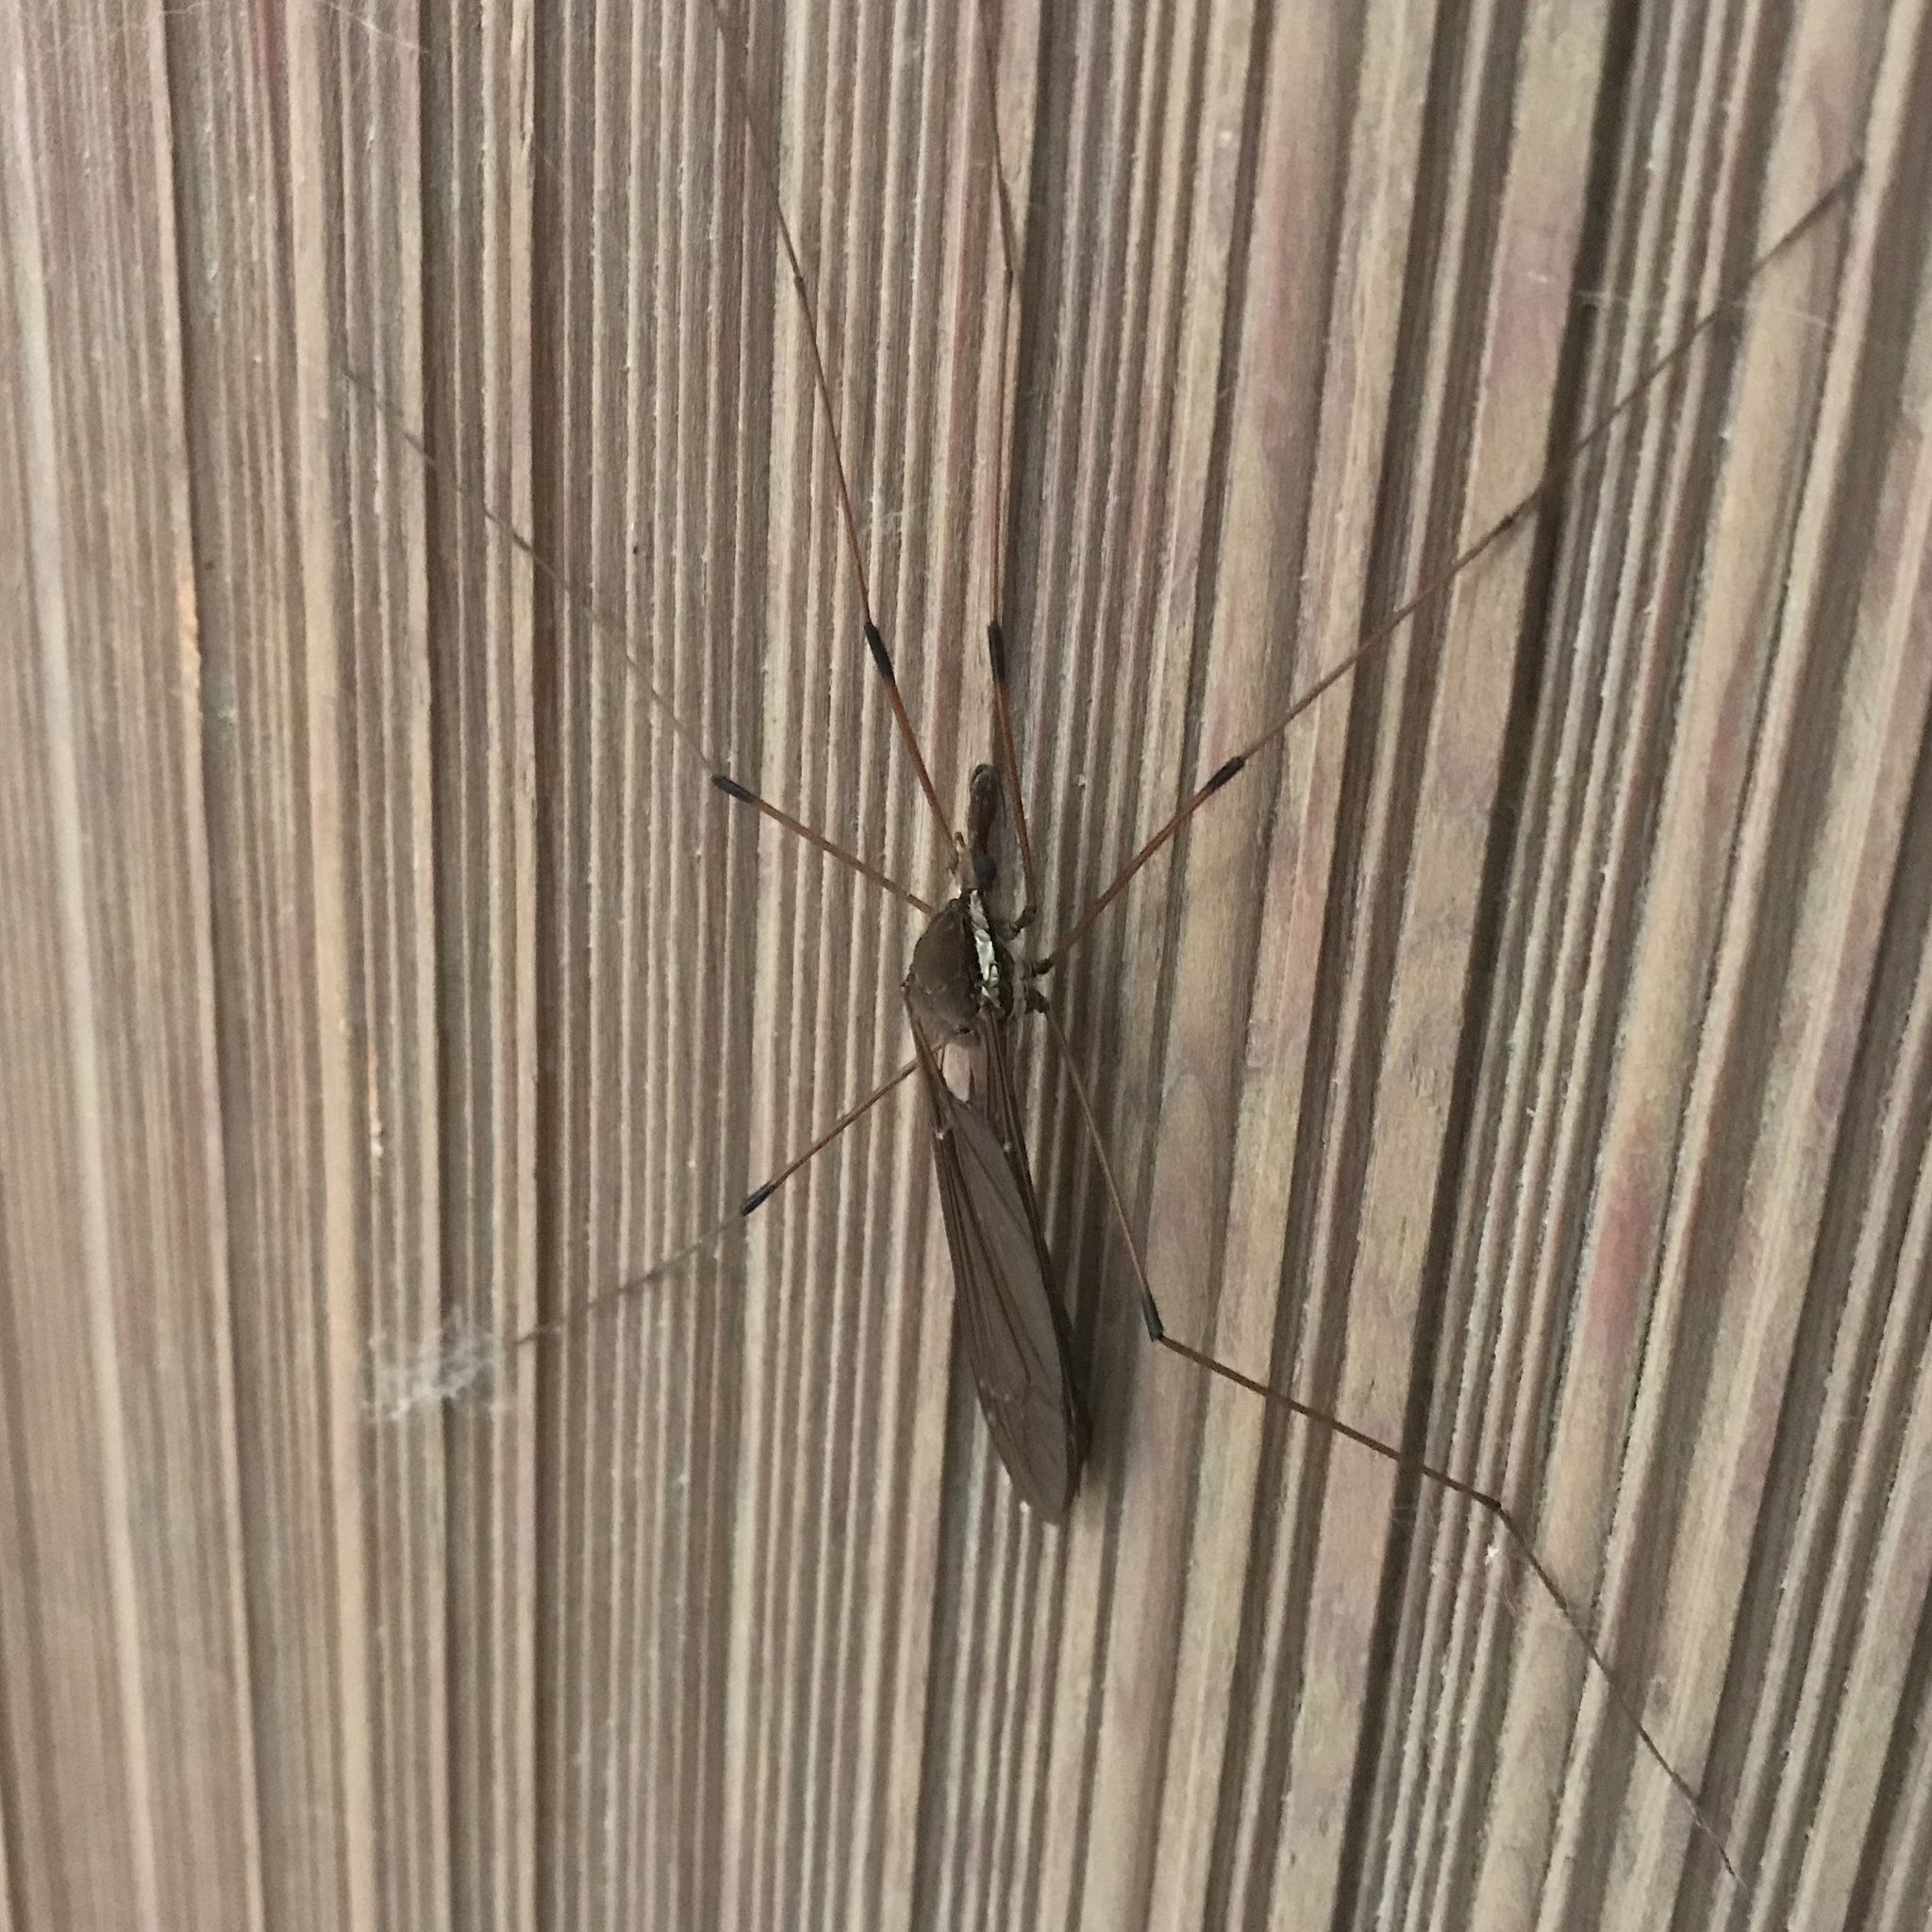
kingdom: Animalia
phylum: Arthropoda
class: Insecta
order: Diptera
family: Tipulidae
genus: Holorusia
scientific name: Holorusia hespera
